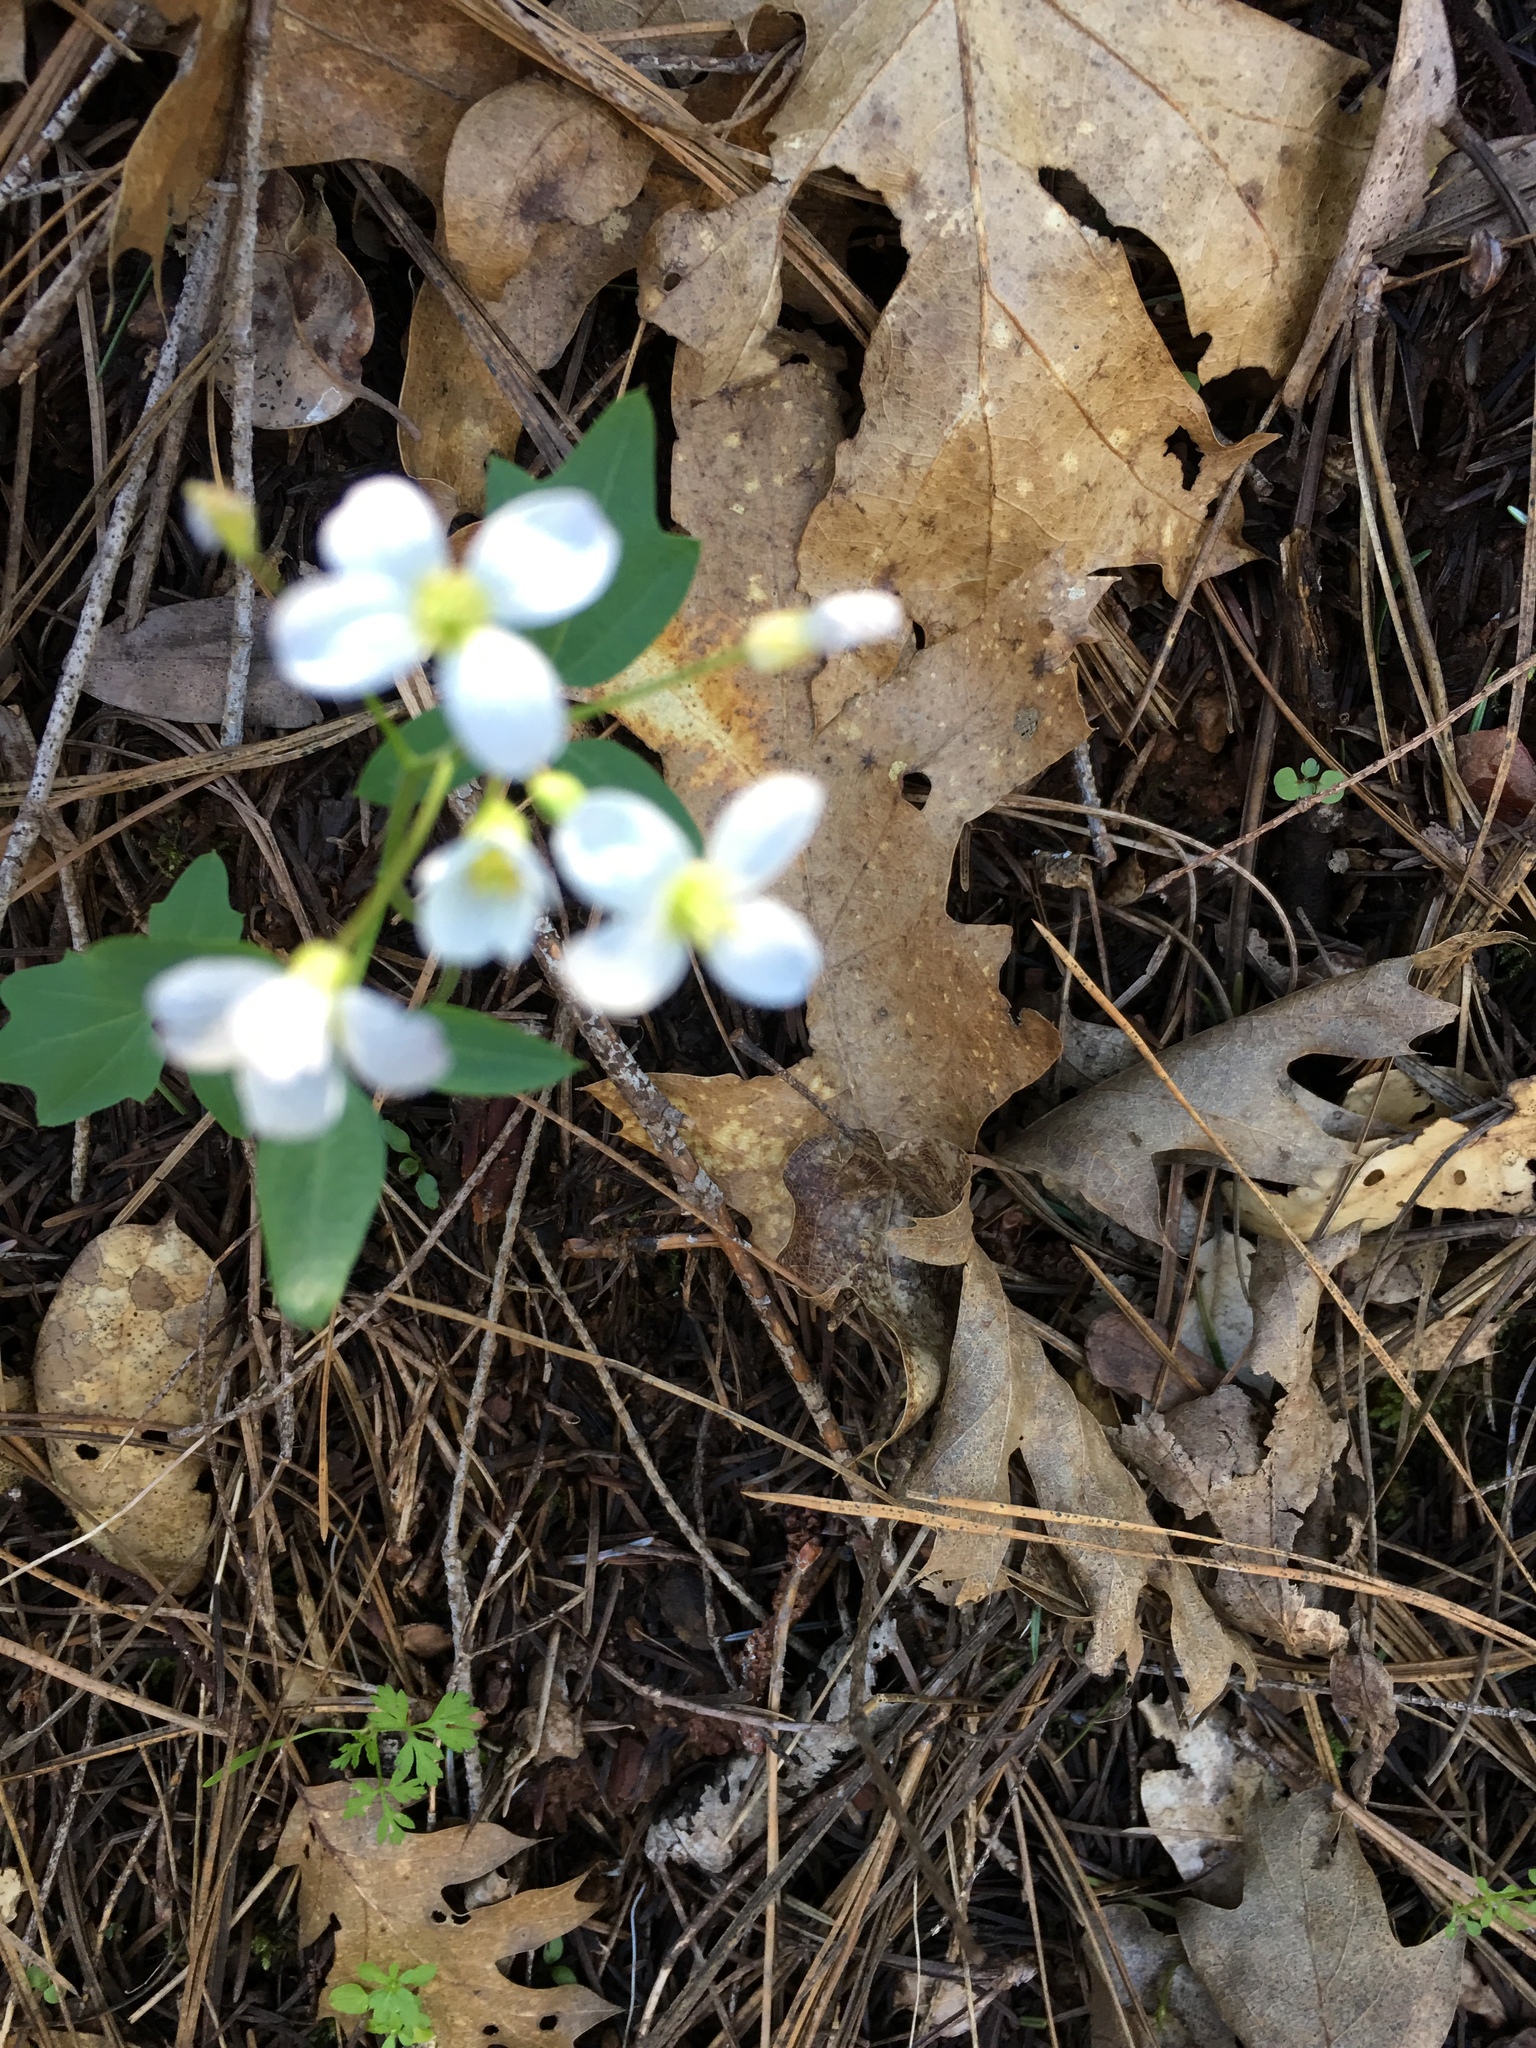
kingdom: Plantae
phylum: Tracheophyta
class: Magnoliopsida
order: Brassicales
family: Brassicaceae
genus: Cardamine
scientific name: Cardamine californica
